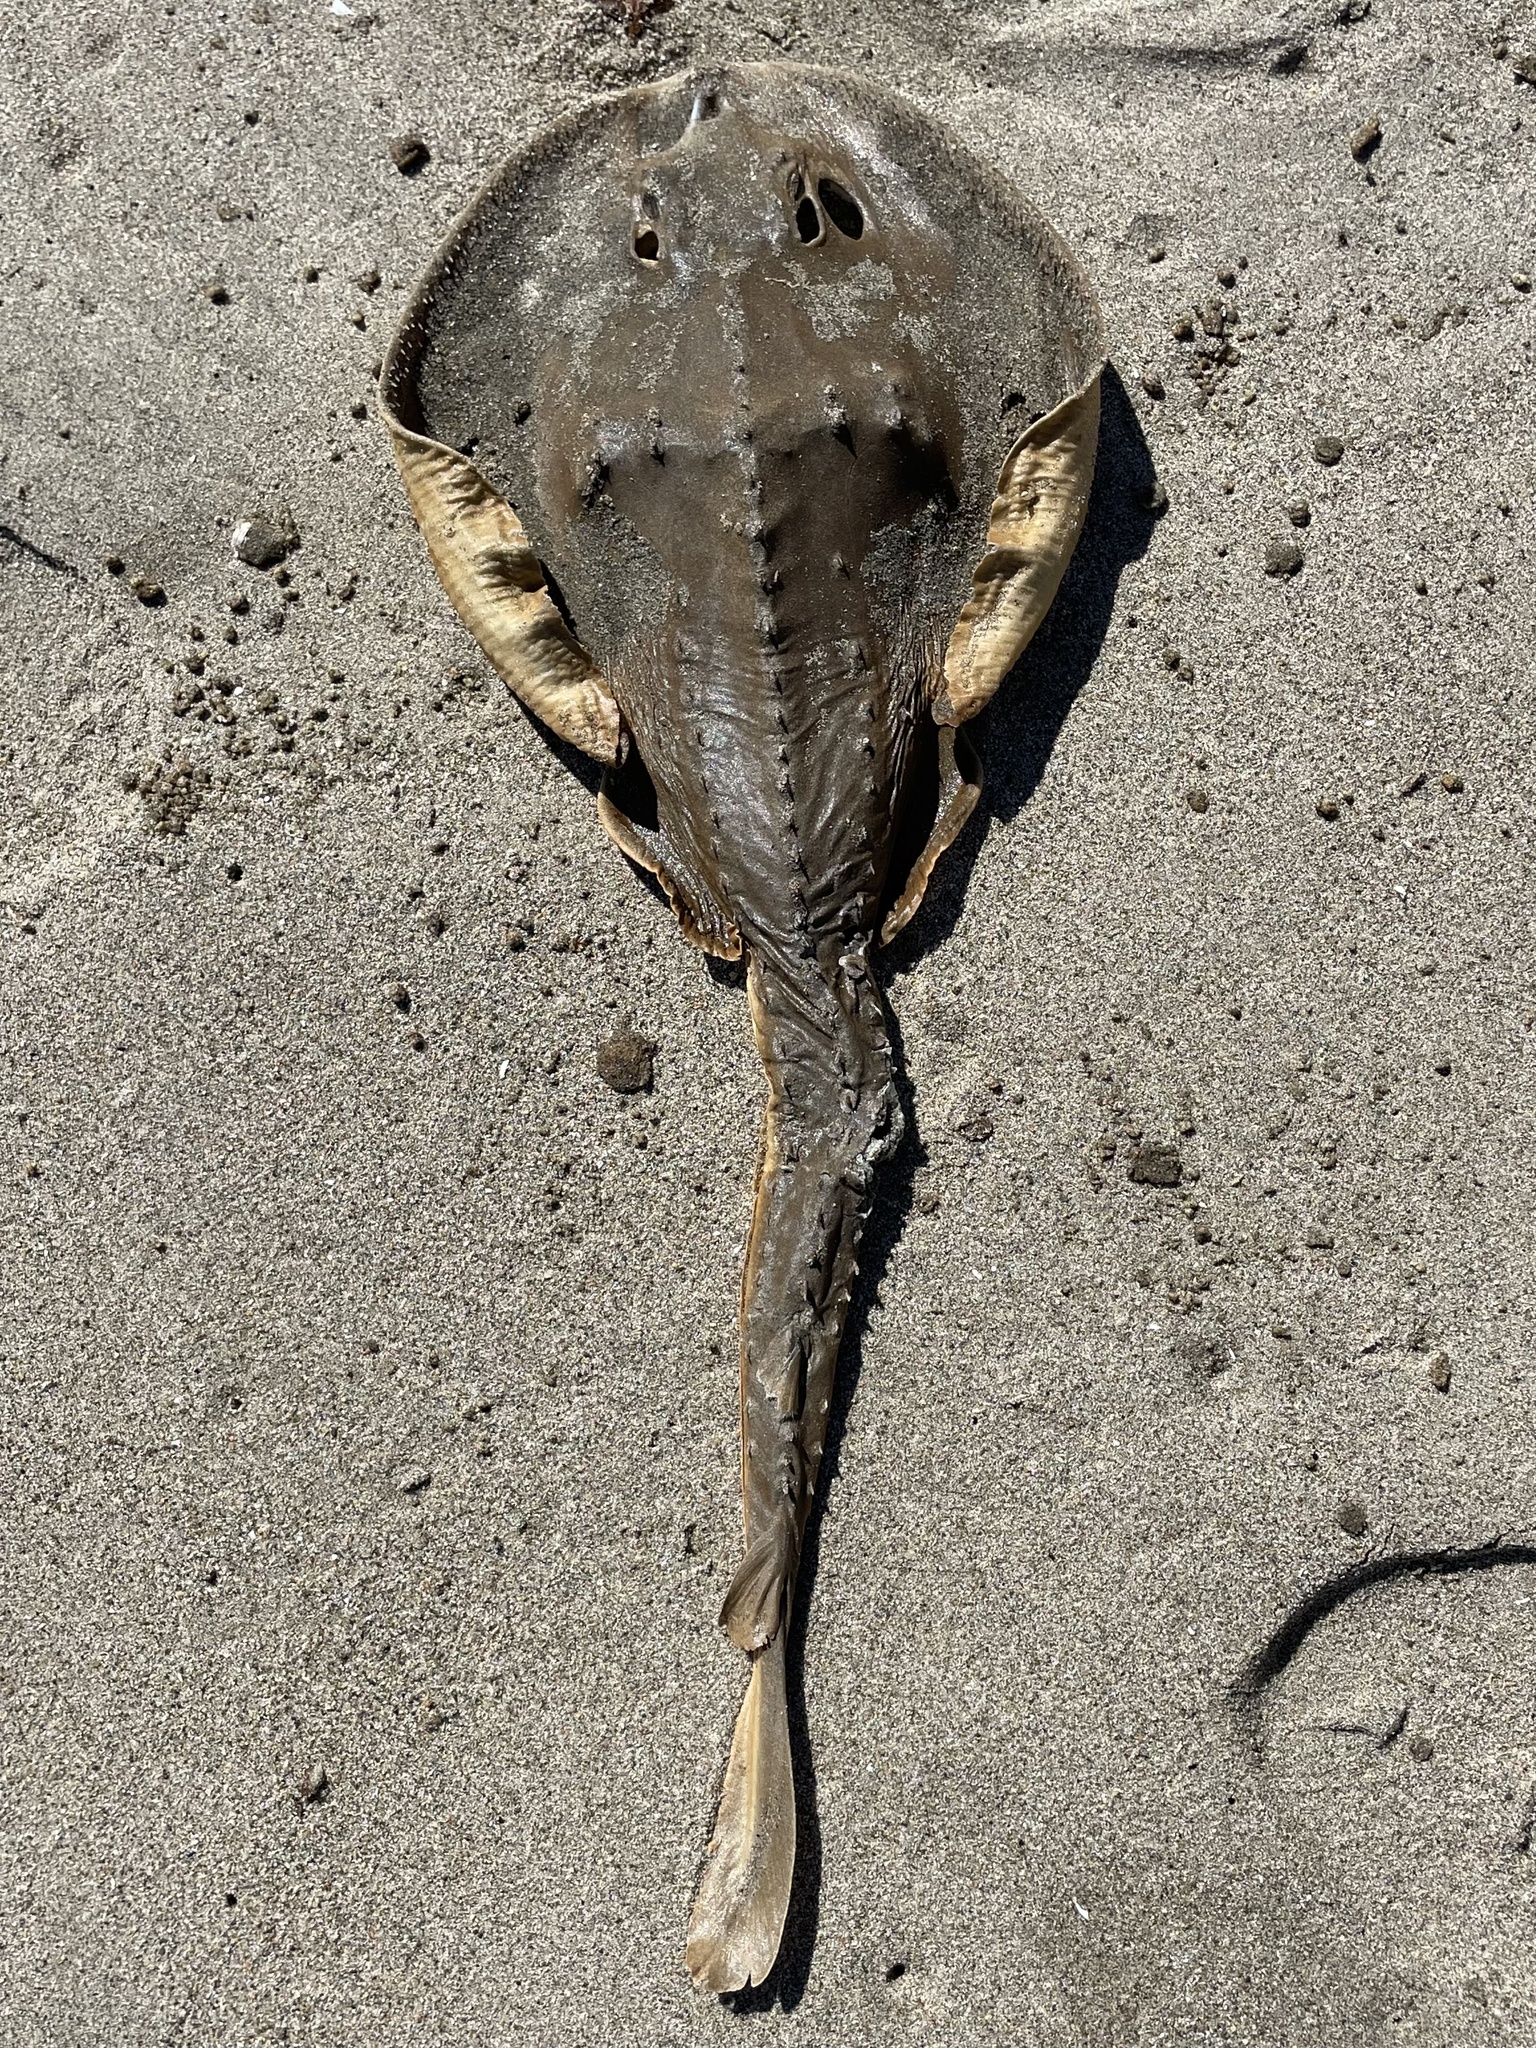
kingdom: Animalia
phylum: Chordata
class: Elasmobranchii
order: Rhinopristiformes
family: Rhinobatidae
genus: Platyrhinoidis
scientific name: Platyrhinoidis triseriata
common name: Thornback
